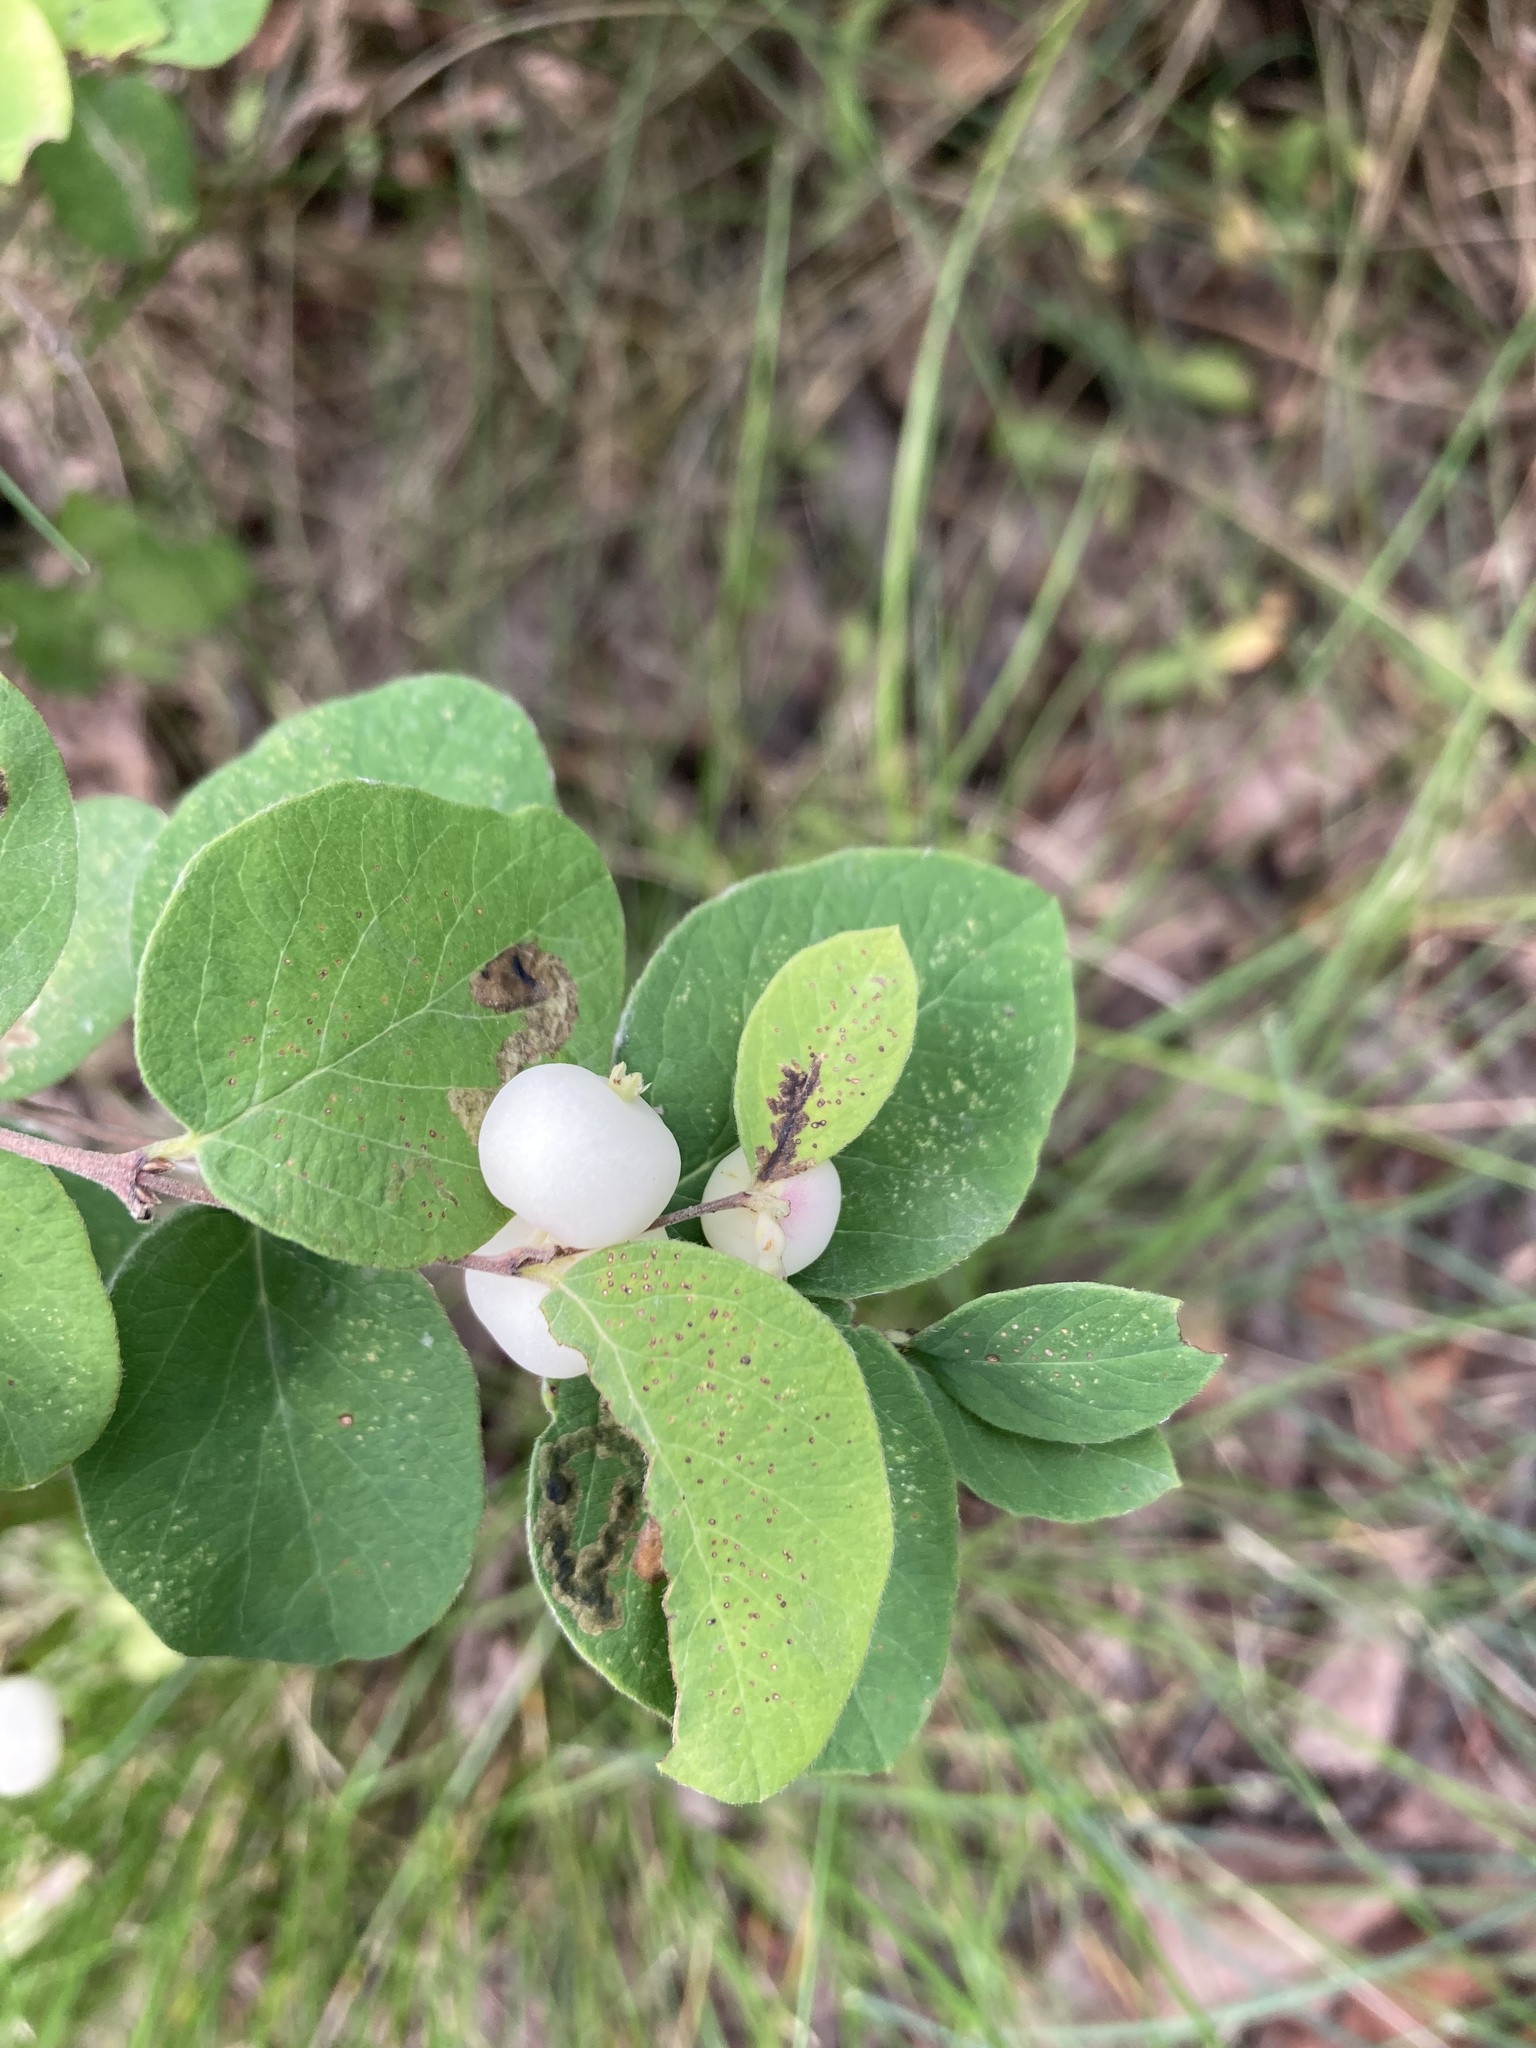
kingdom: Plantae
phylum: Tracheophyta
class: Magnoliopsida
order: Dipsacales
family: Caprifoliaceae
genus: Symphoricarpos
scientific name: Symphoricarpos albus
